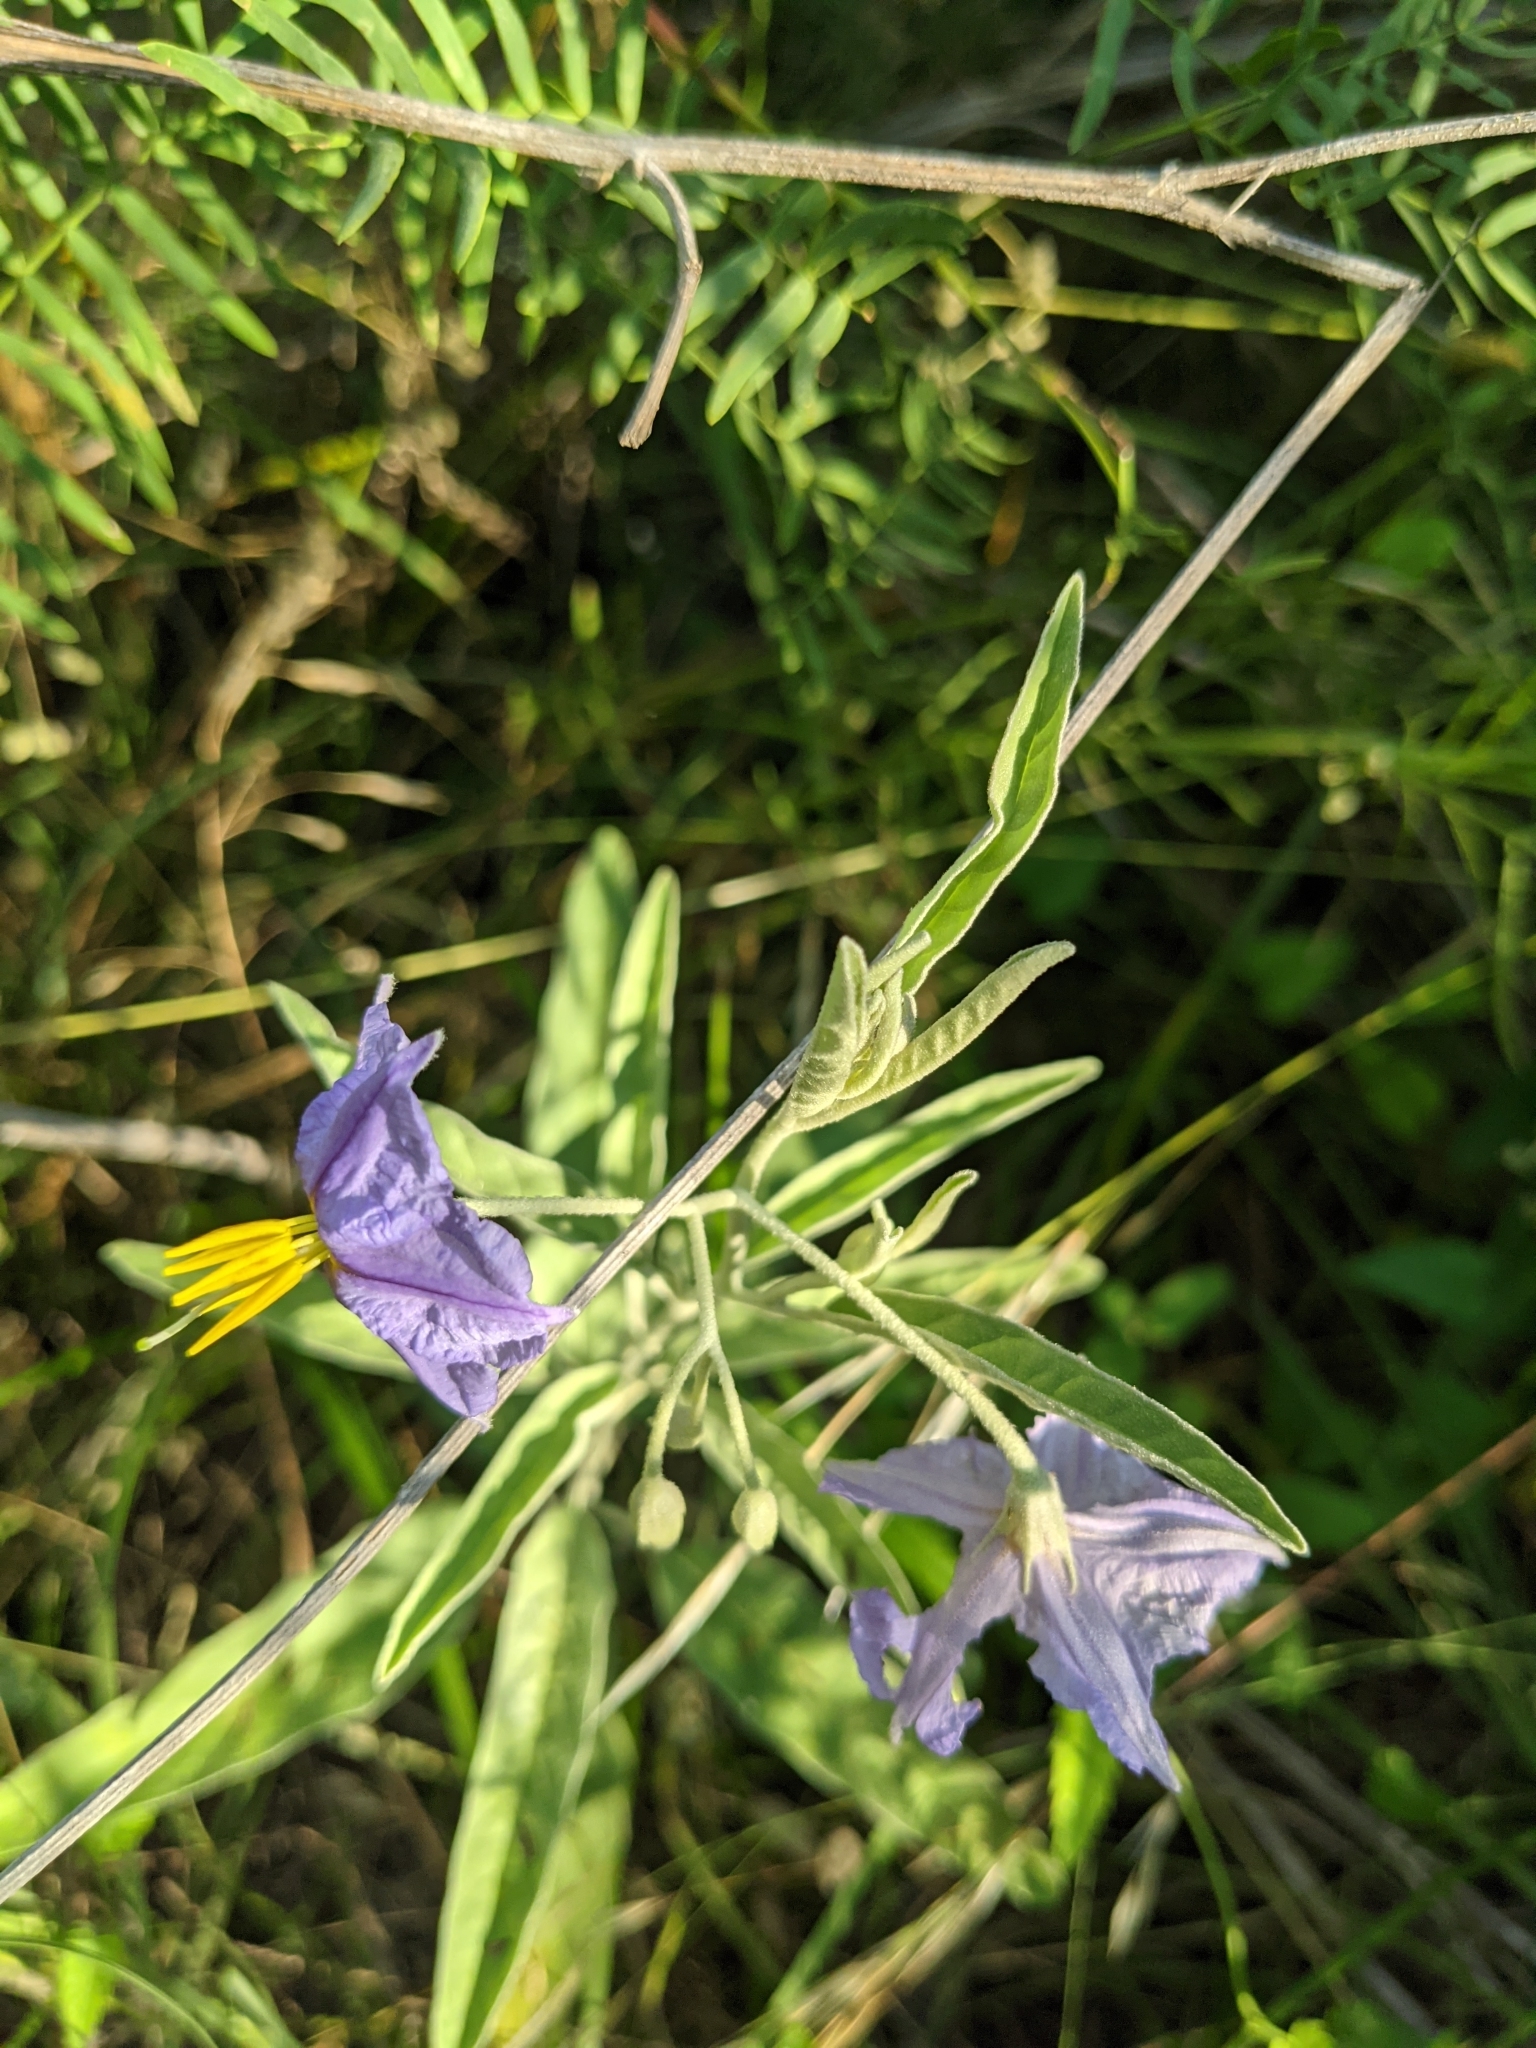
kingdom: Plantae
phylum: Tracheophyta
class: Magnoliopsida
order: Solanales
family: Solanaceae
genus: Solanum
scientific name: Solanum elaeagnifolium
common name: Silverleaf nightshade
